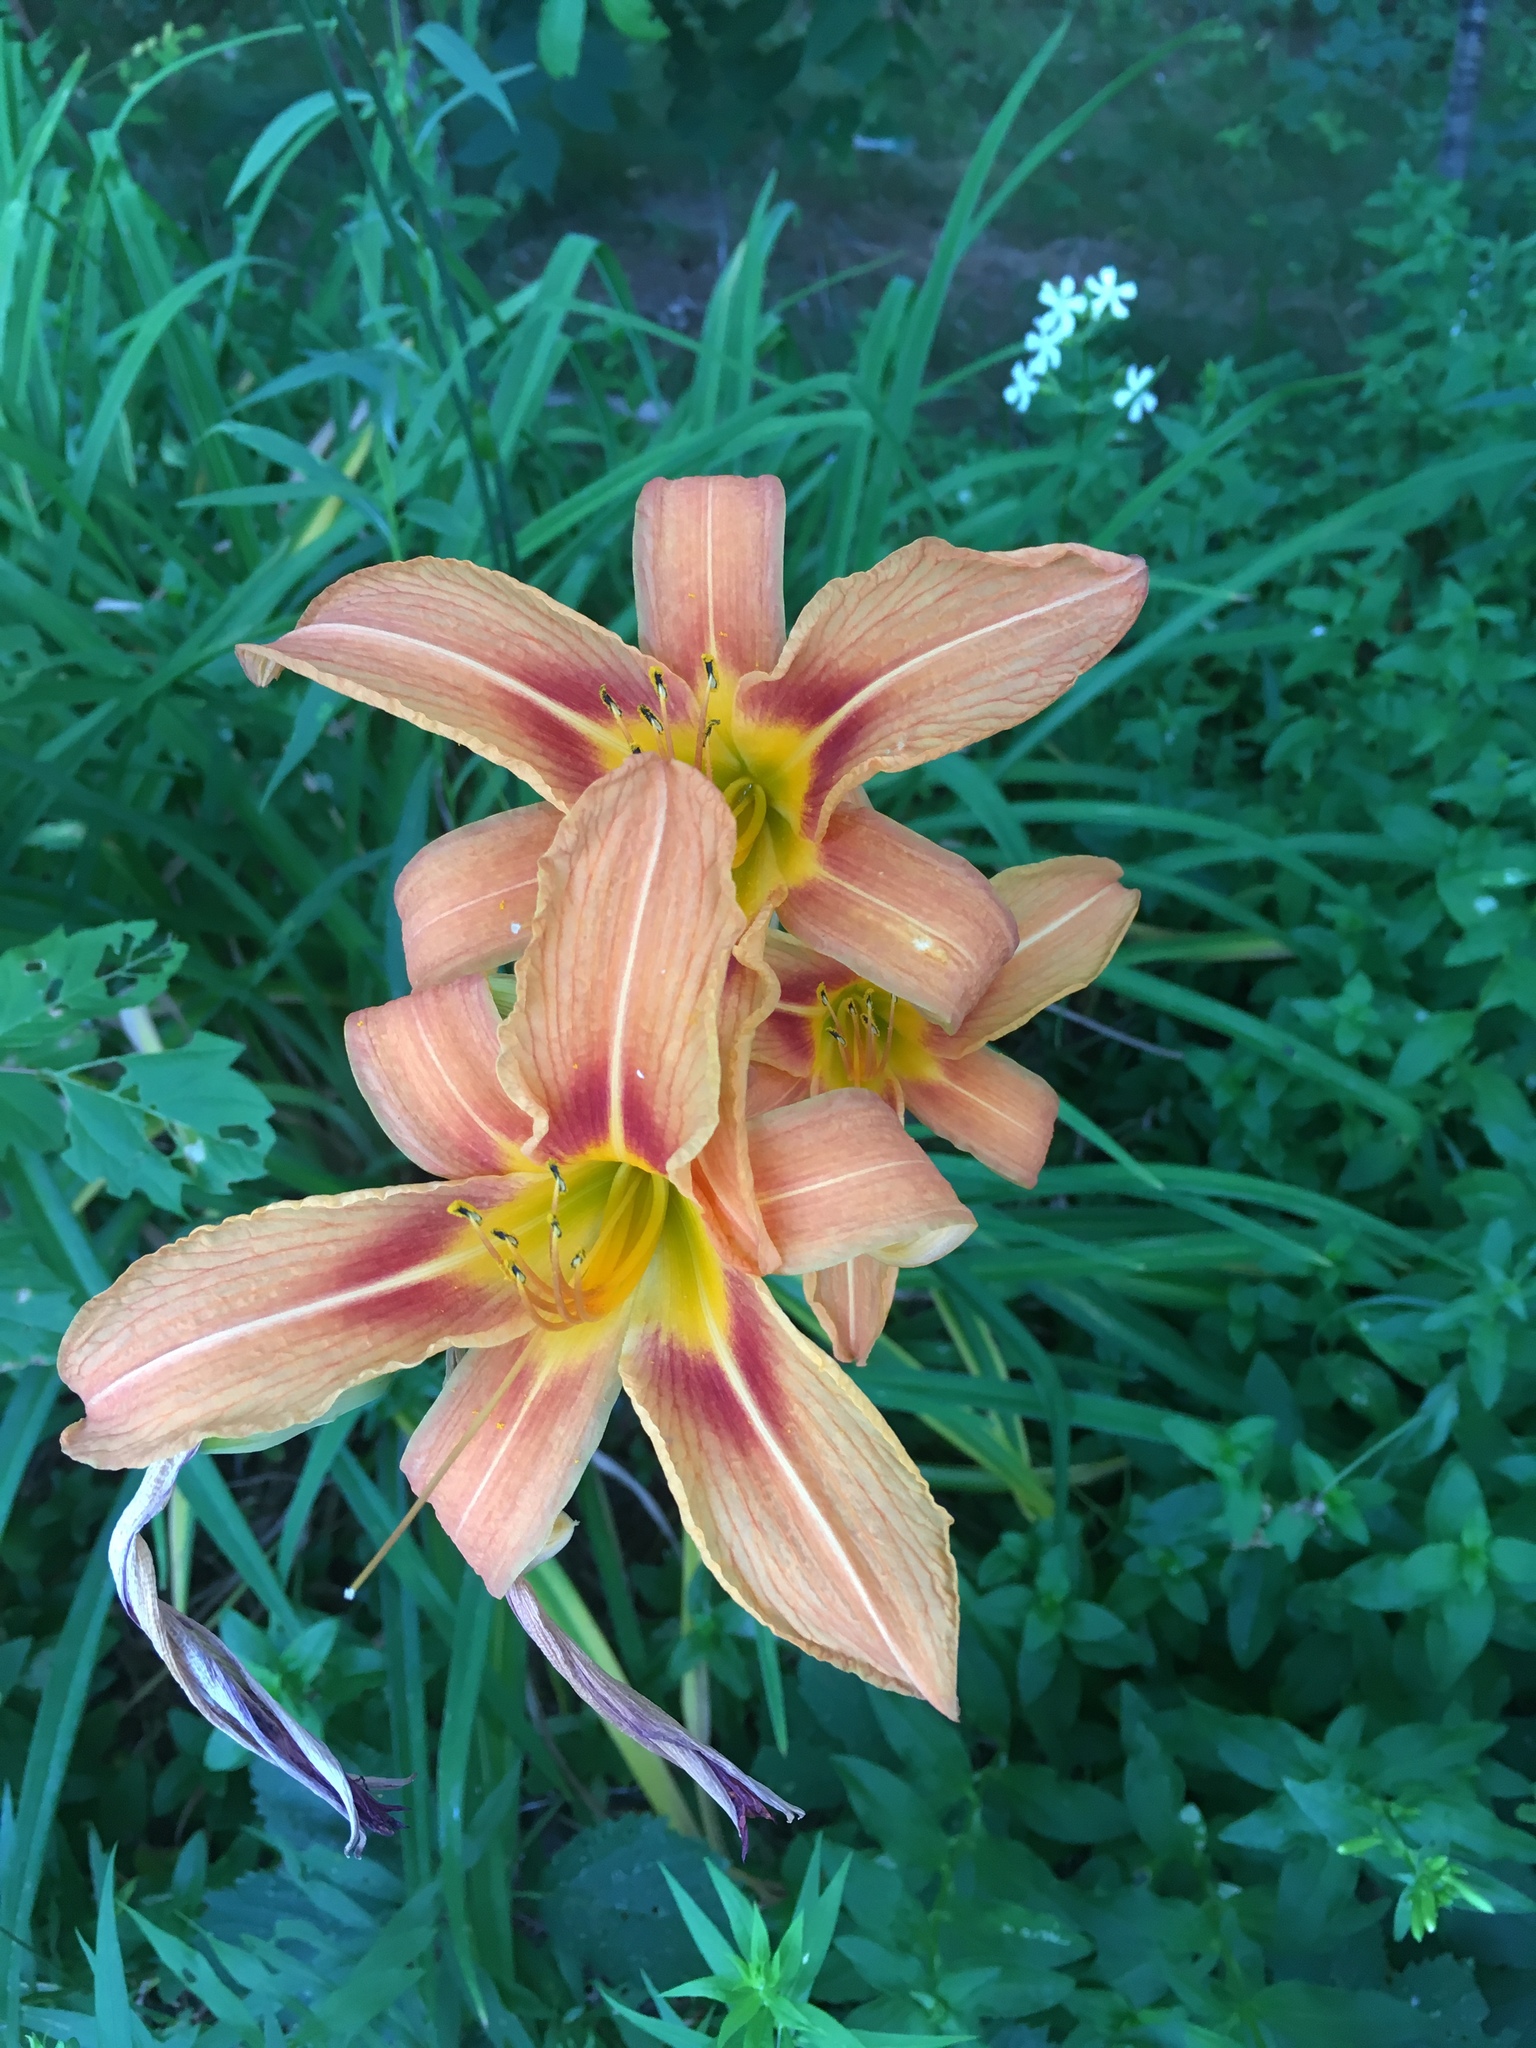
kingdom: Plantae
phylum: Tracheophyta
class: Liliopsida
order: Asparagales
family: Asphodelaceae
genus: Hemerocallis
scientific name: Hemerocallis fulva
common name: Orange day-lily
